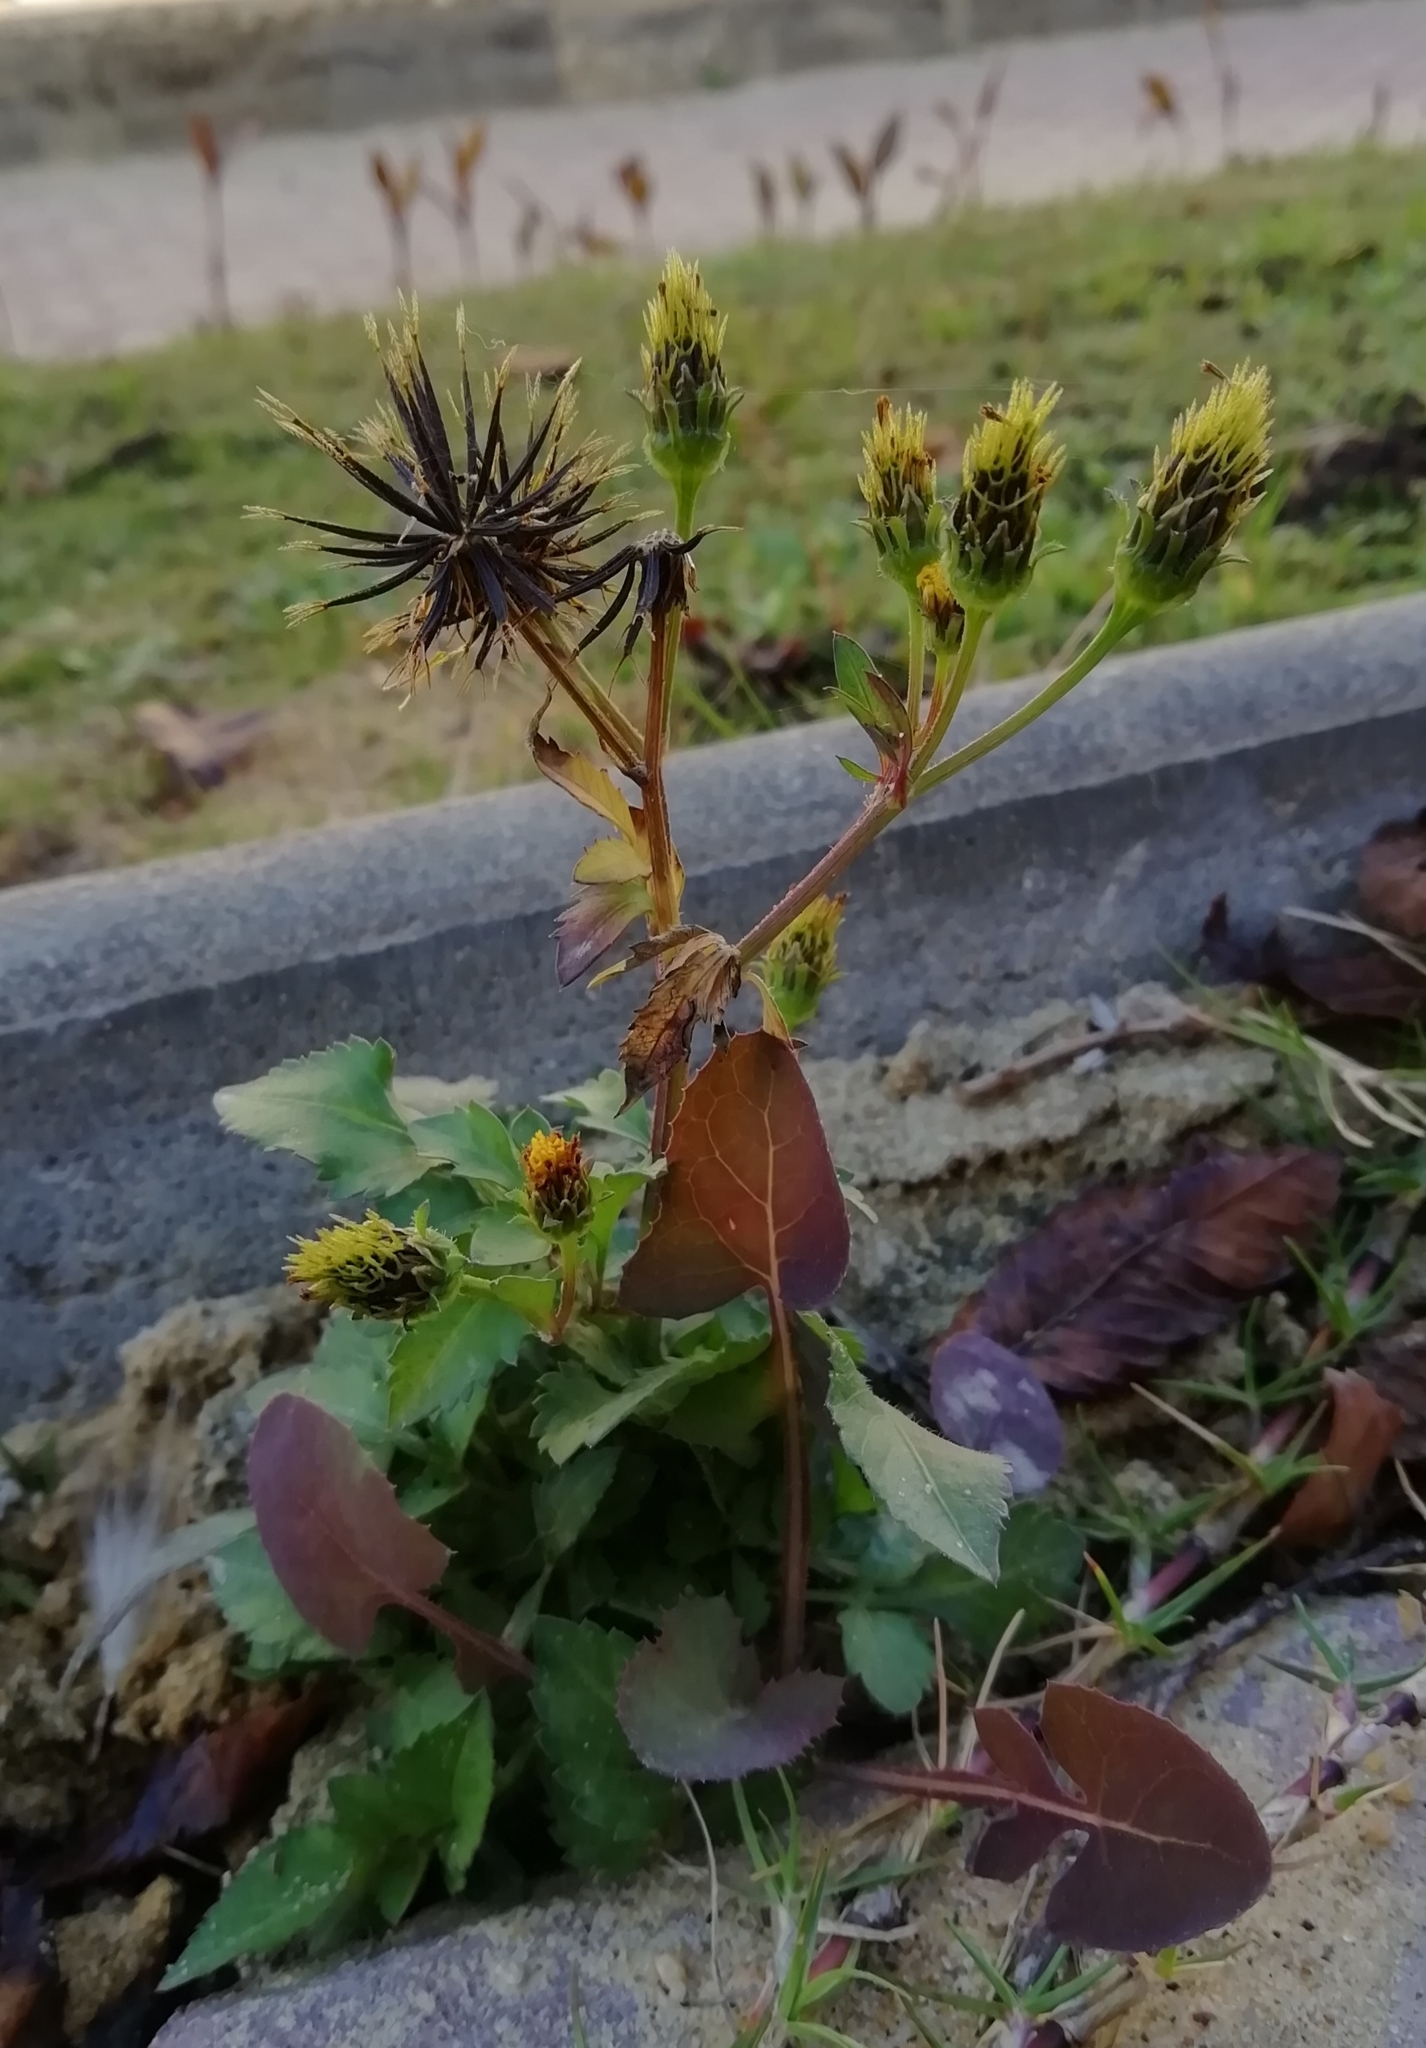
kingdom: Plantae
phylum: Tracheophyta
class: Magnoliopsida
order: Asterales
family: Asteraceae
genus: Bidens
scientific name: Bidens pilosa
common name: Black-jack
